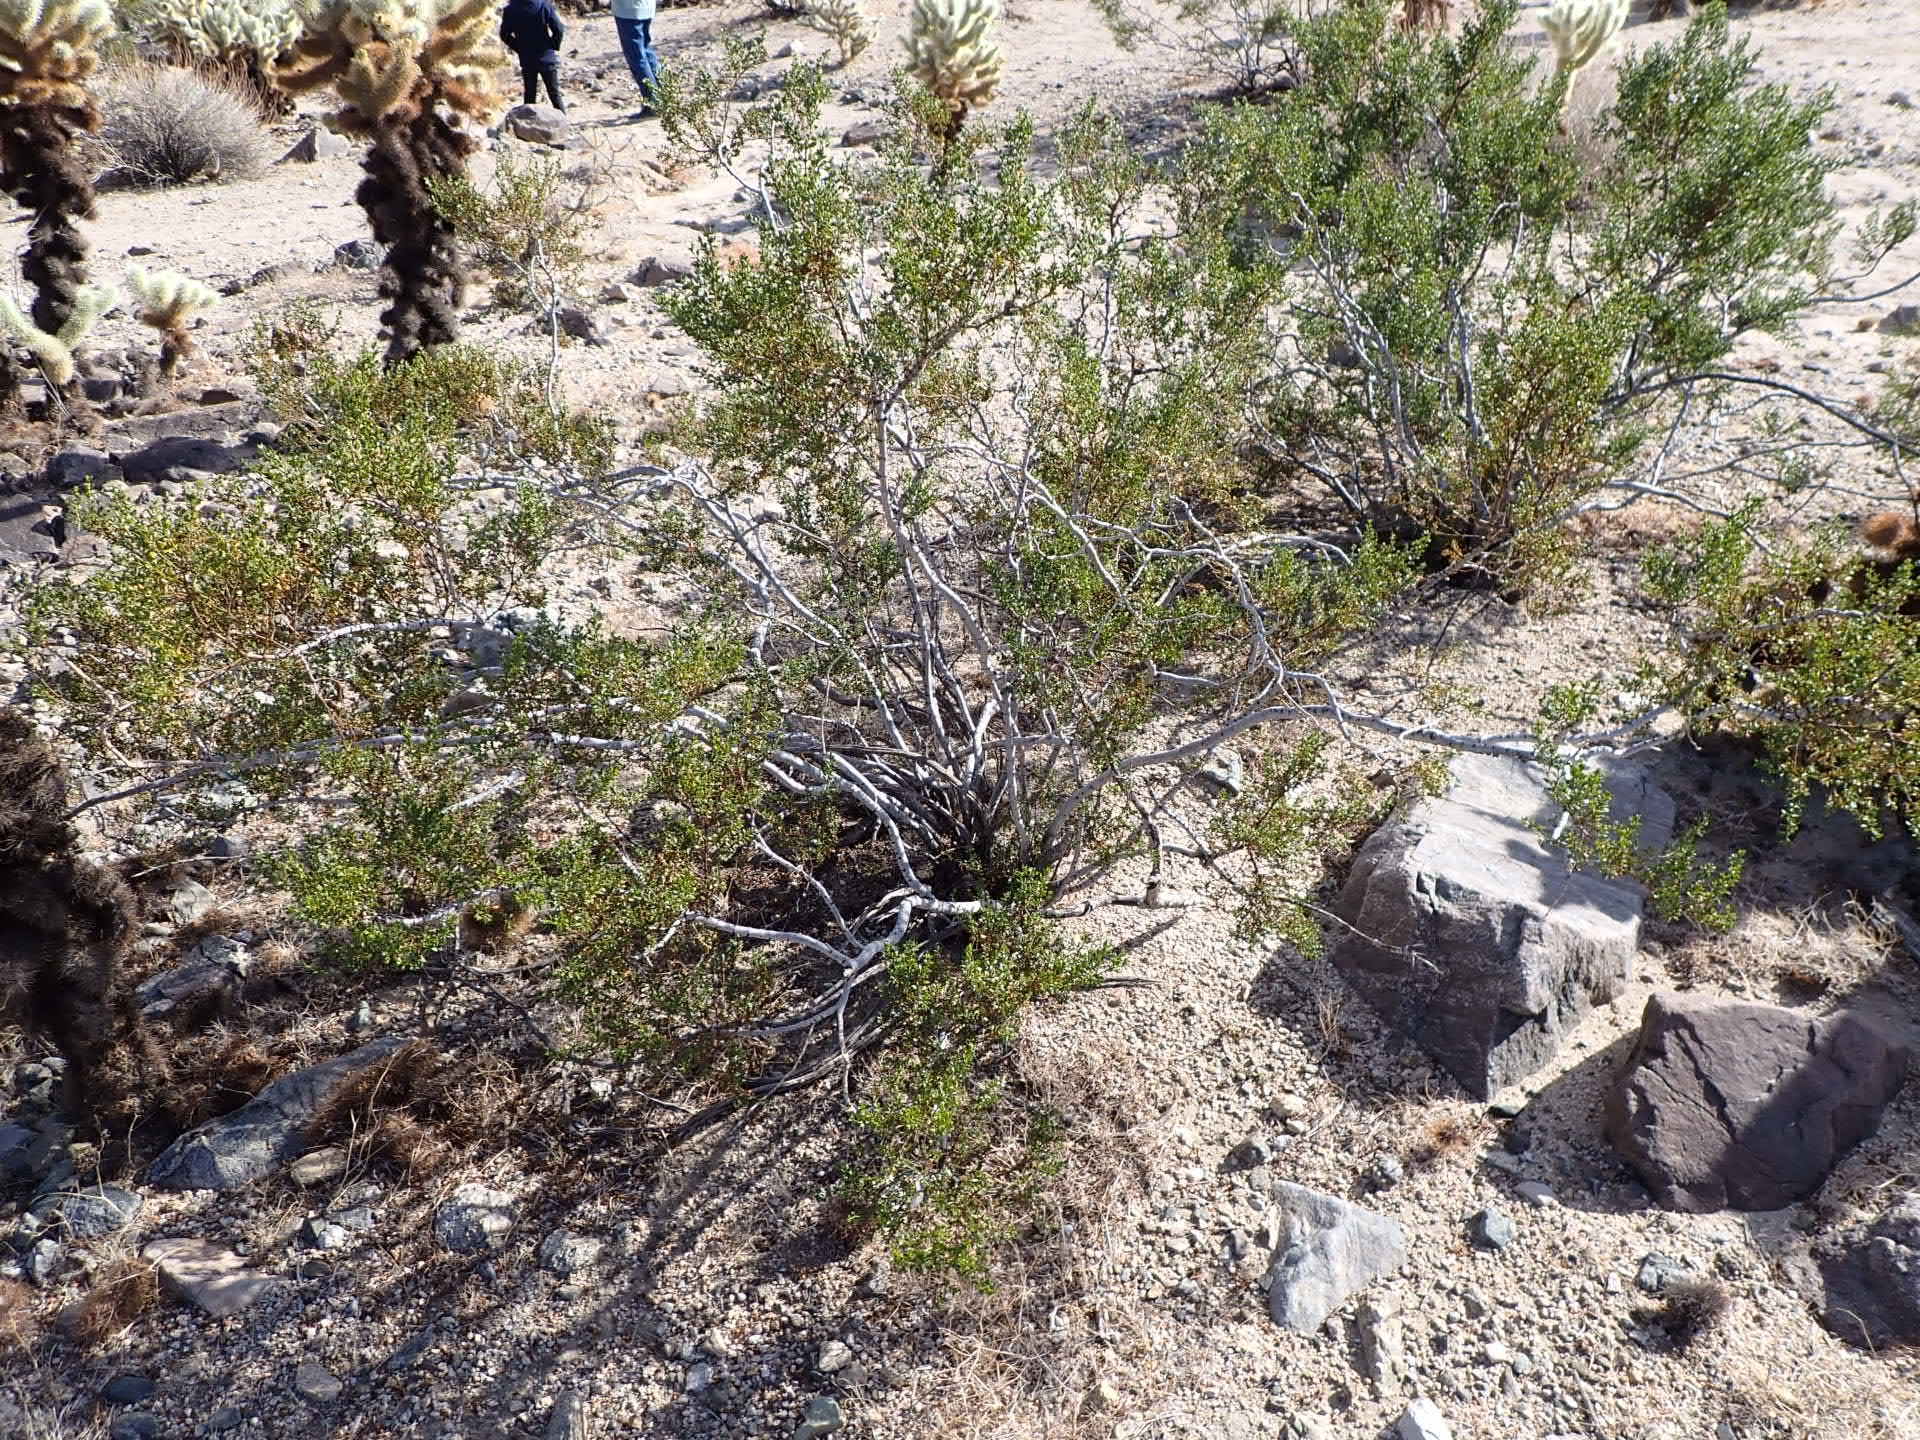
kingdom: Plantae
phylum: Tracheophyta
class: Magnoliopsida
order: Zygophyllales
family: Zygophyllaceae
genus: Larrea
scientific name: Larrea tridentata
